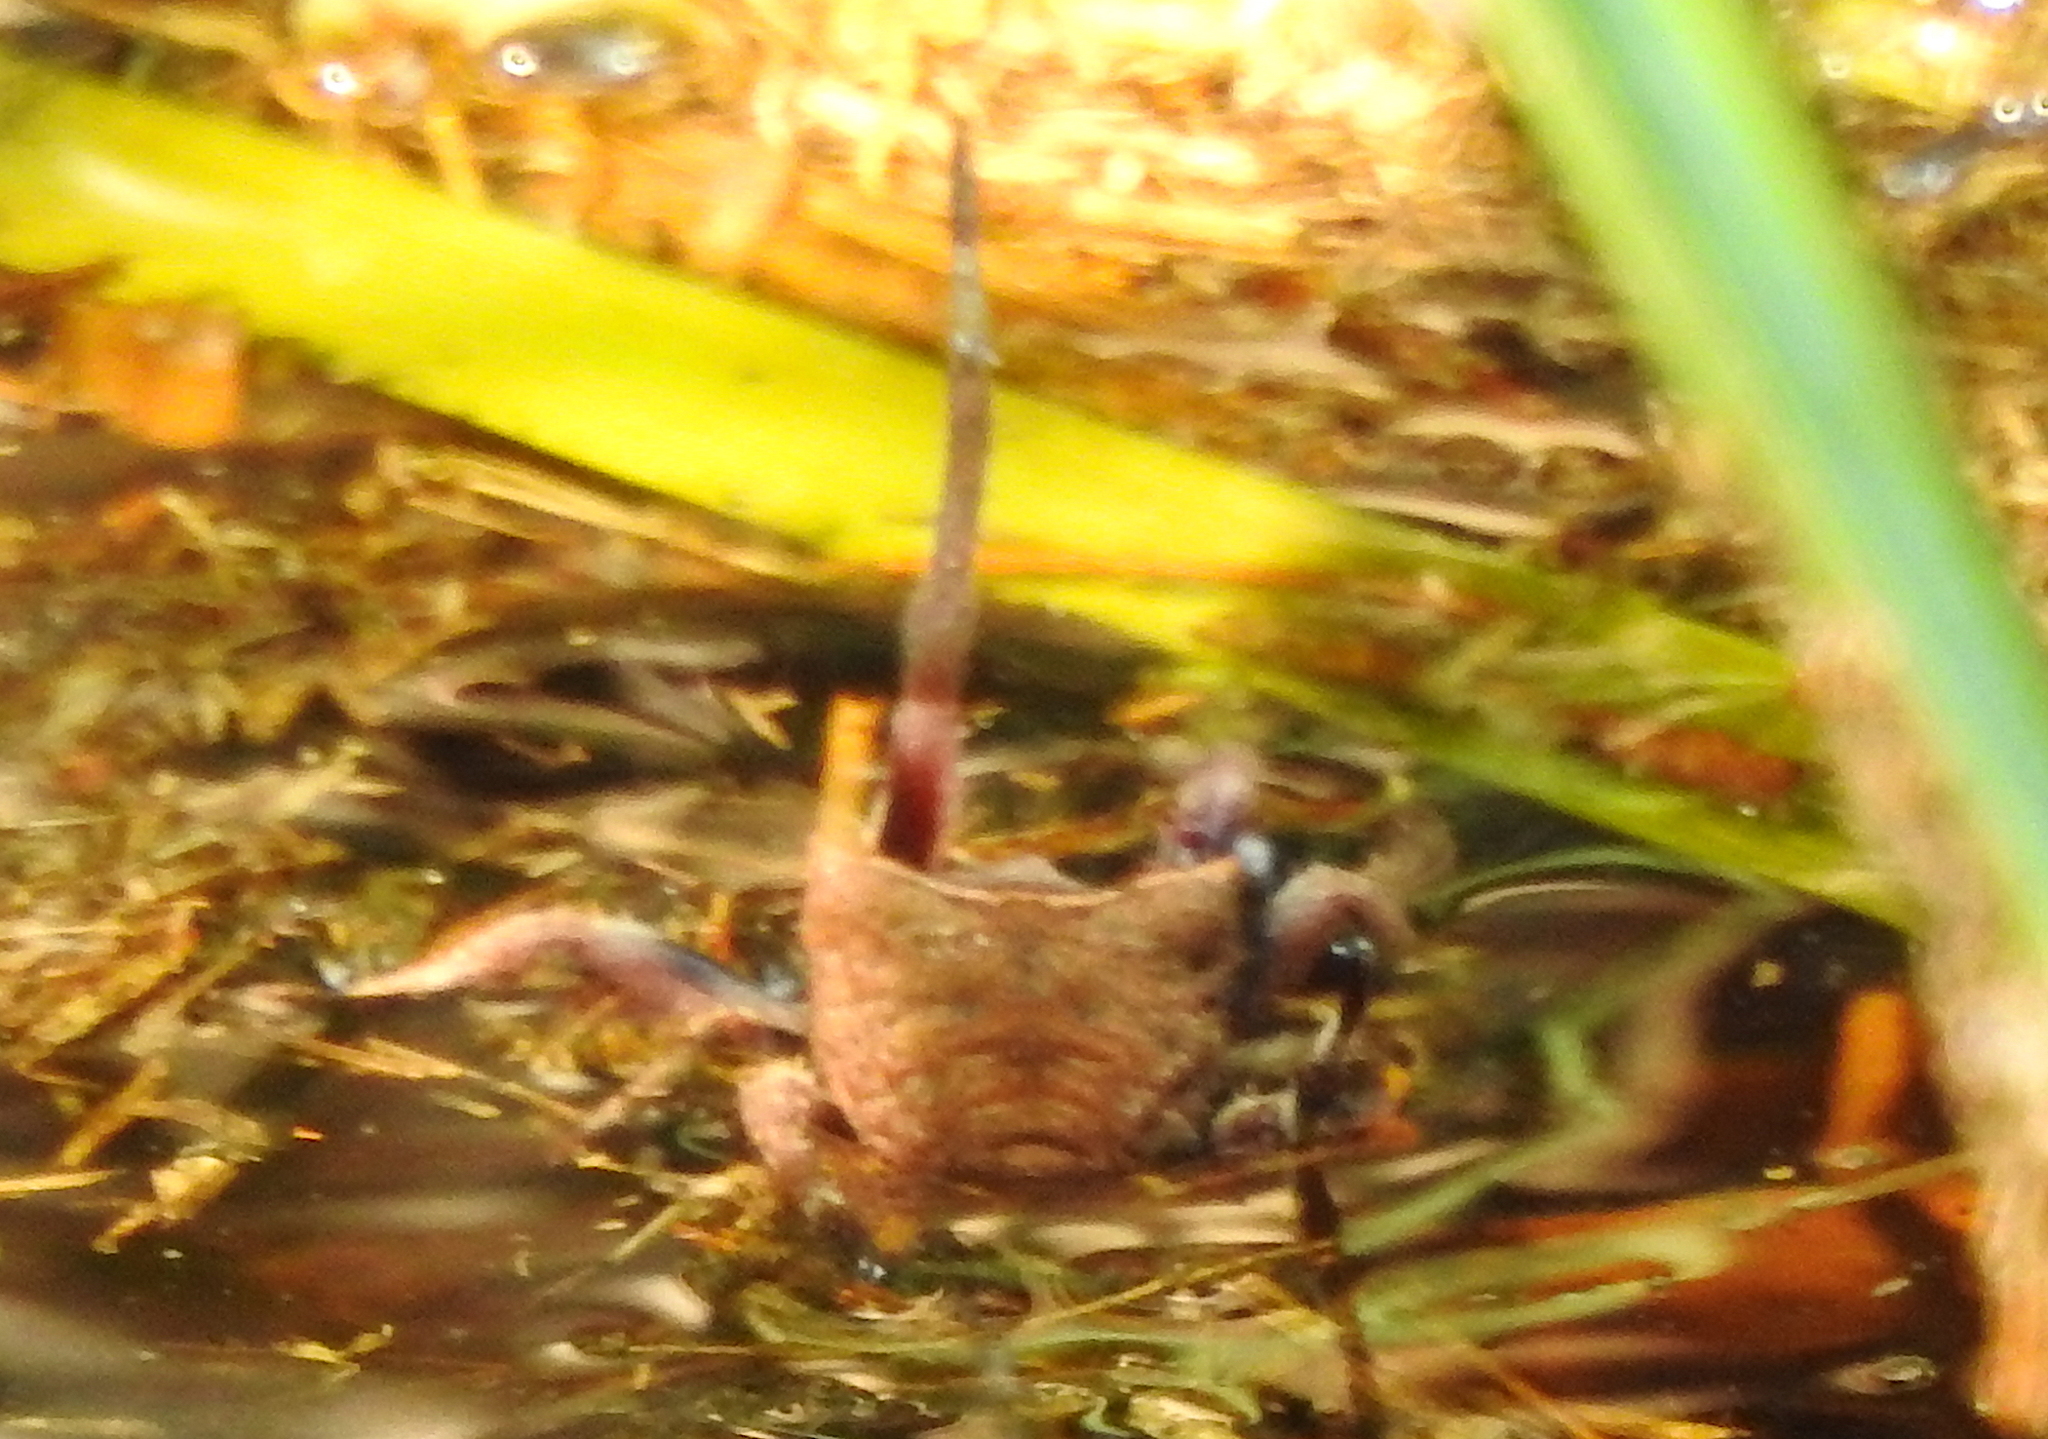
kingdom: Animalia
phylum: Arthropoda
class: Arachnida
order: Araneae
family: Araneidae
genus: Parawixia
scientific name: Parawixia dehaani
